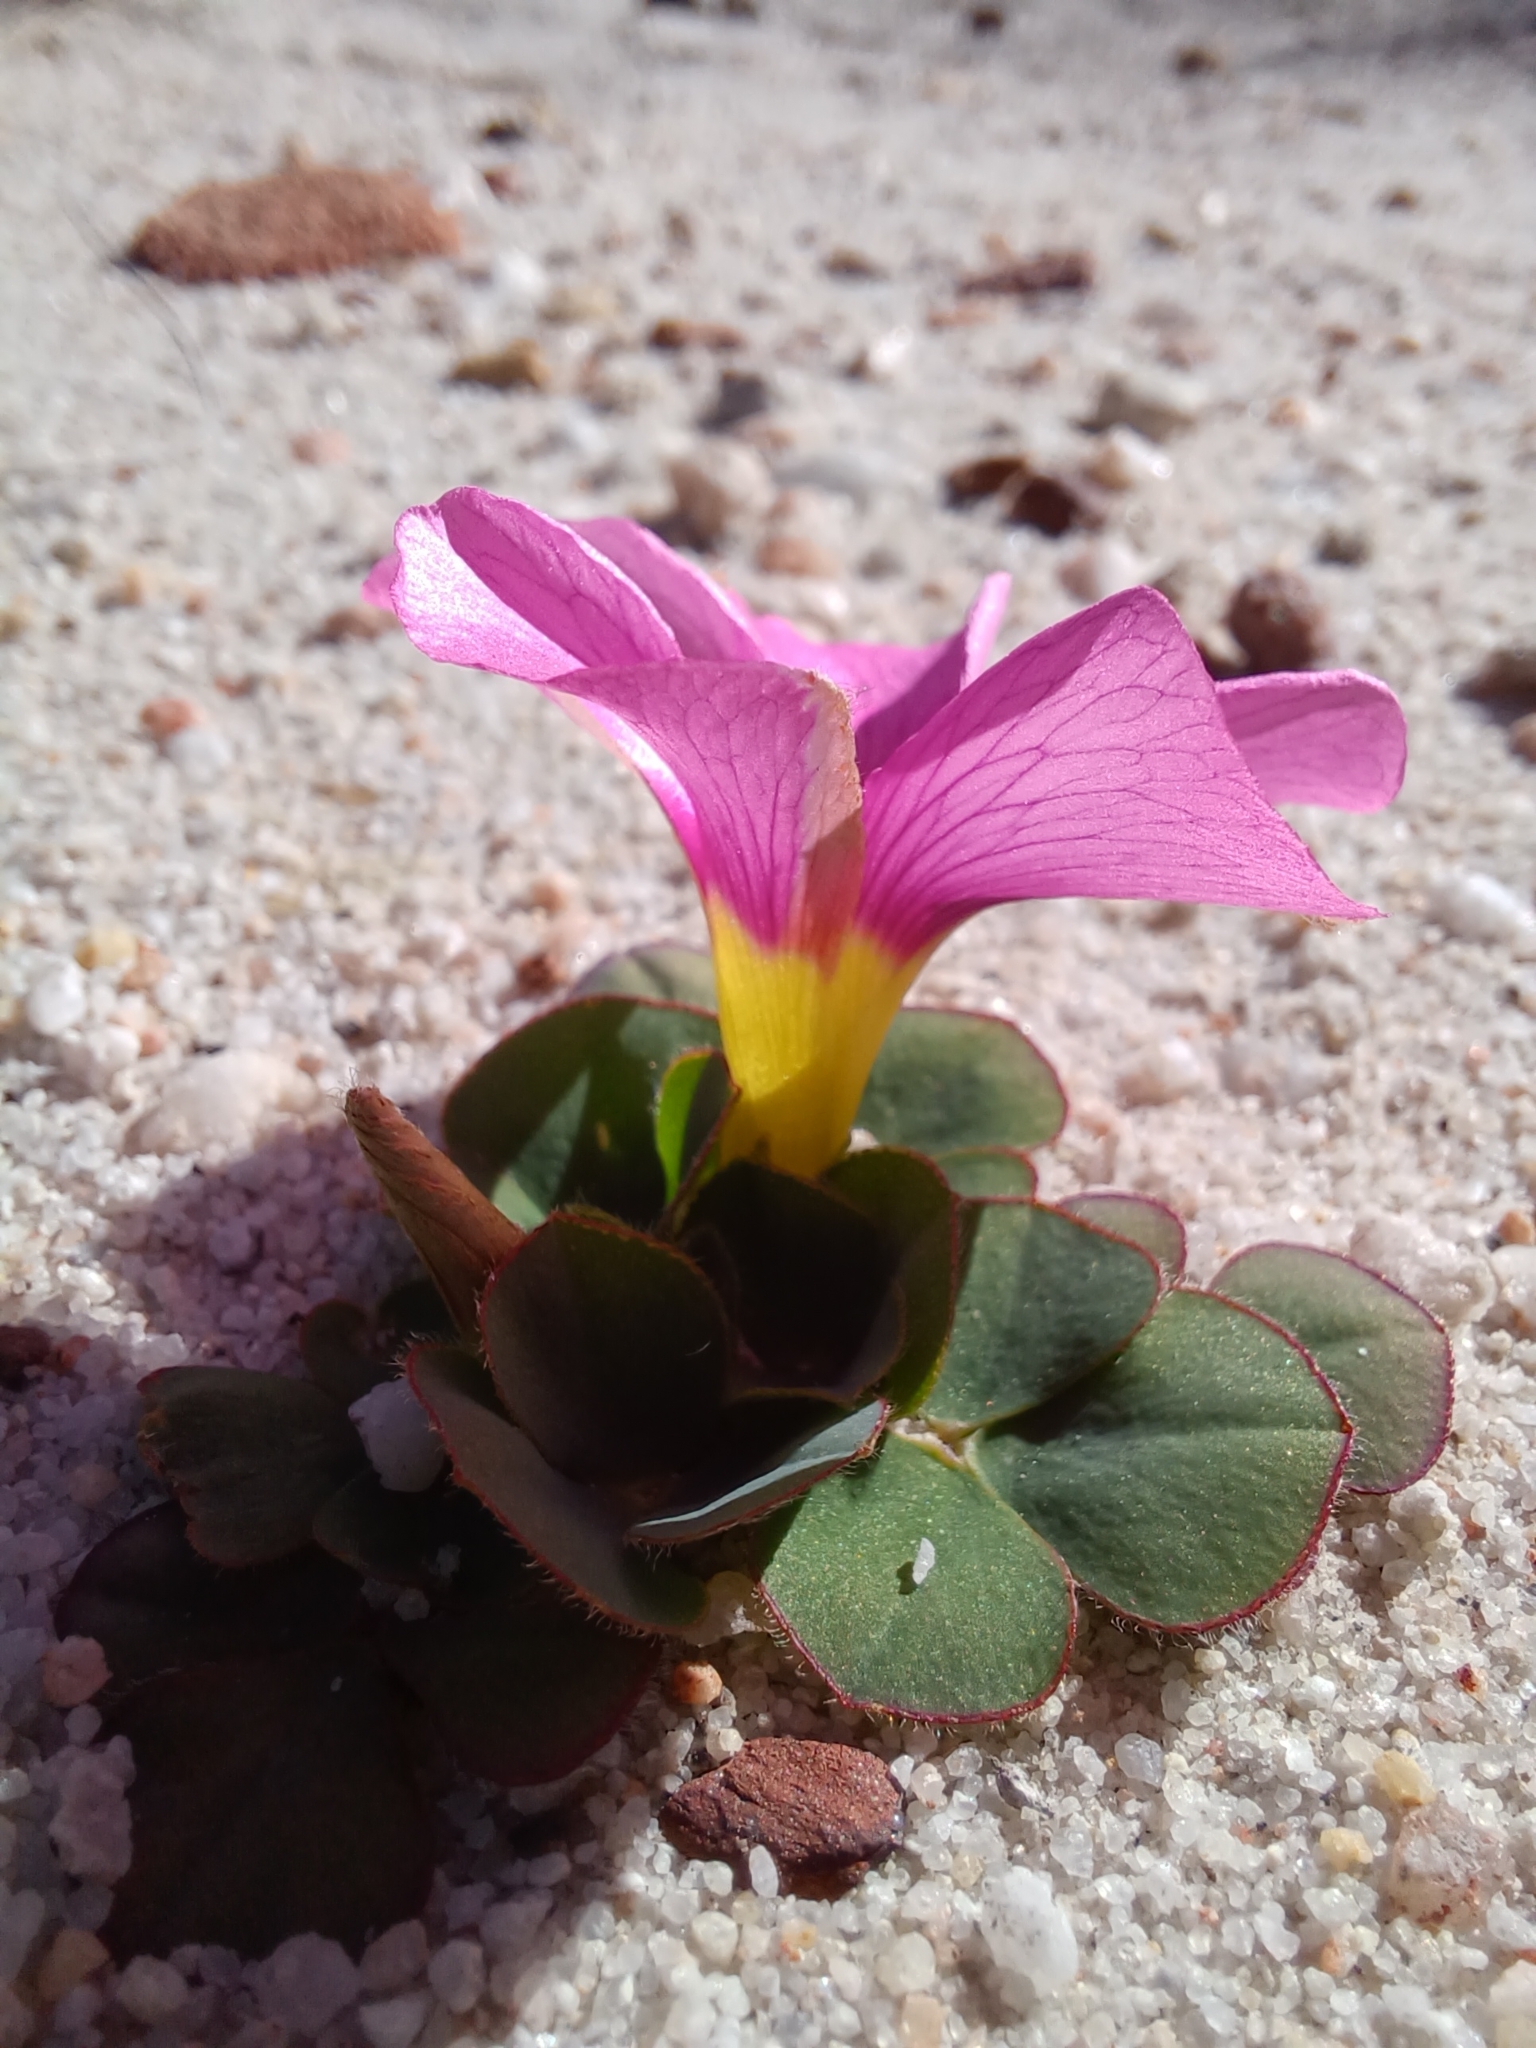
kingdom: Plantae
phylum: Tracheophyta
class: Magnoliopsida
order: Oxalidales
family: Oxalidaceae
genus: Oxalis
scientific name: Oxalis purpurea
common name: Purple woodsorrel
